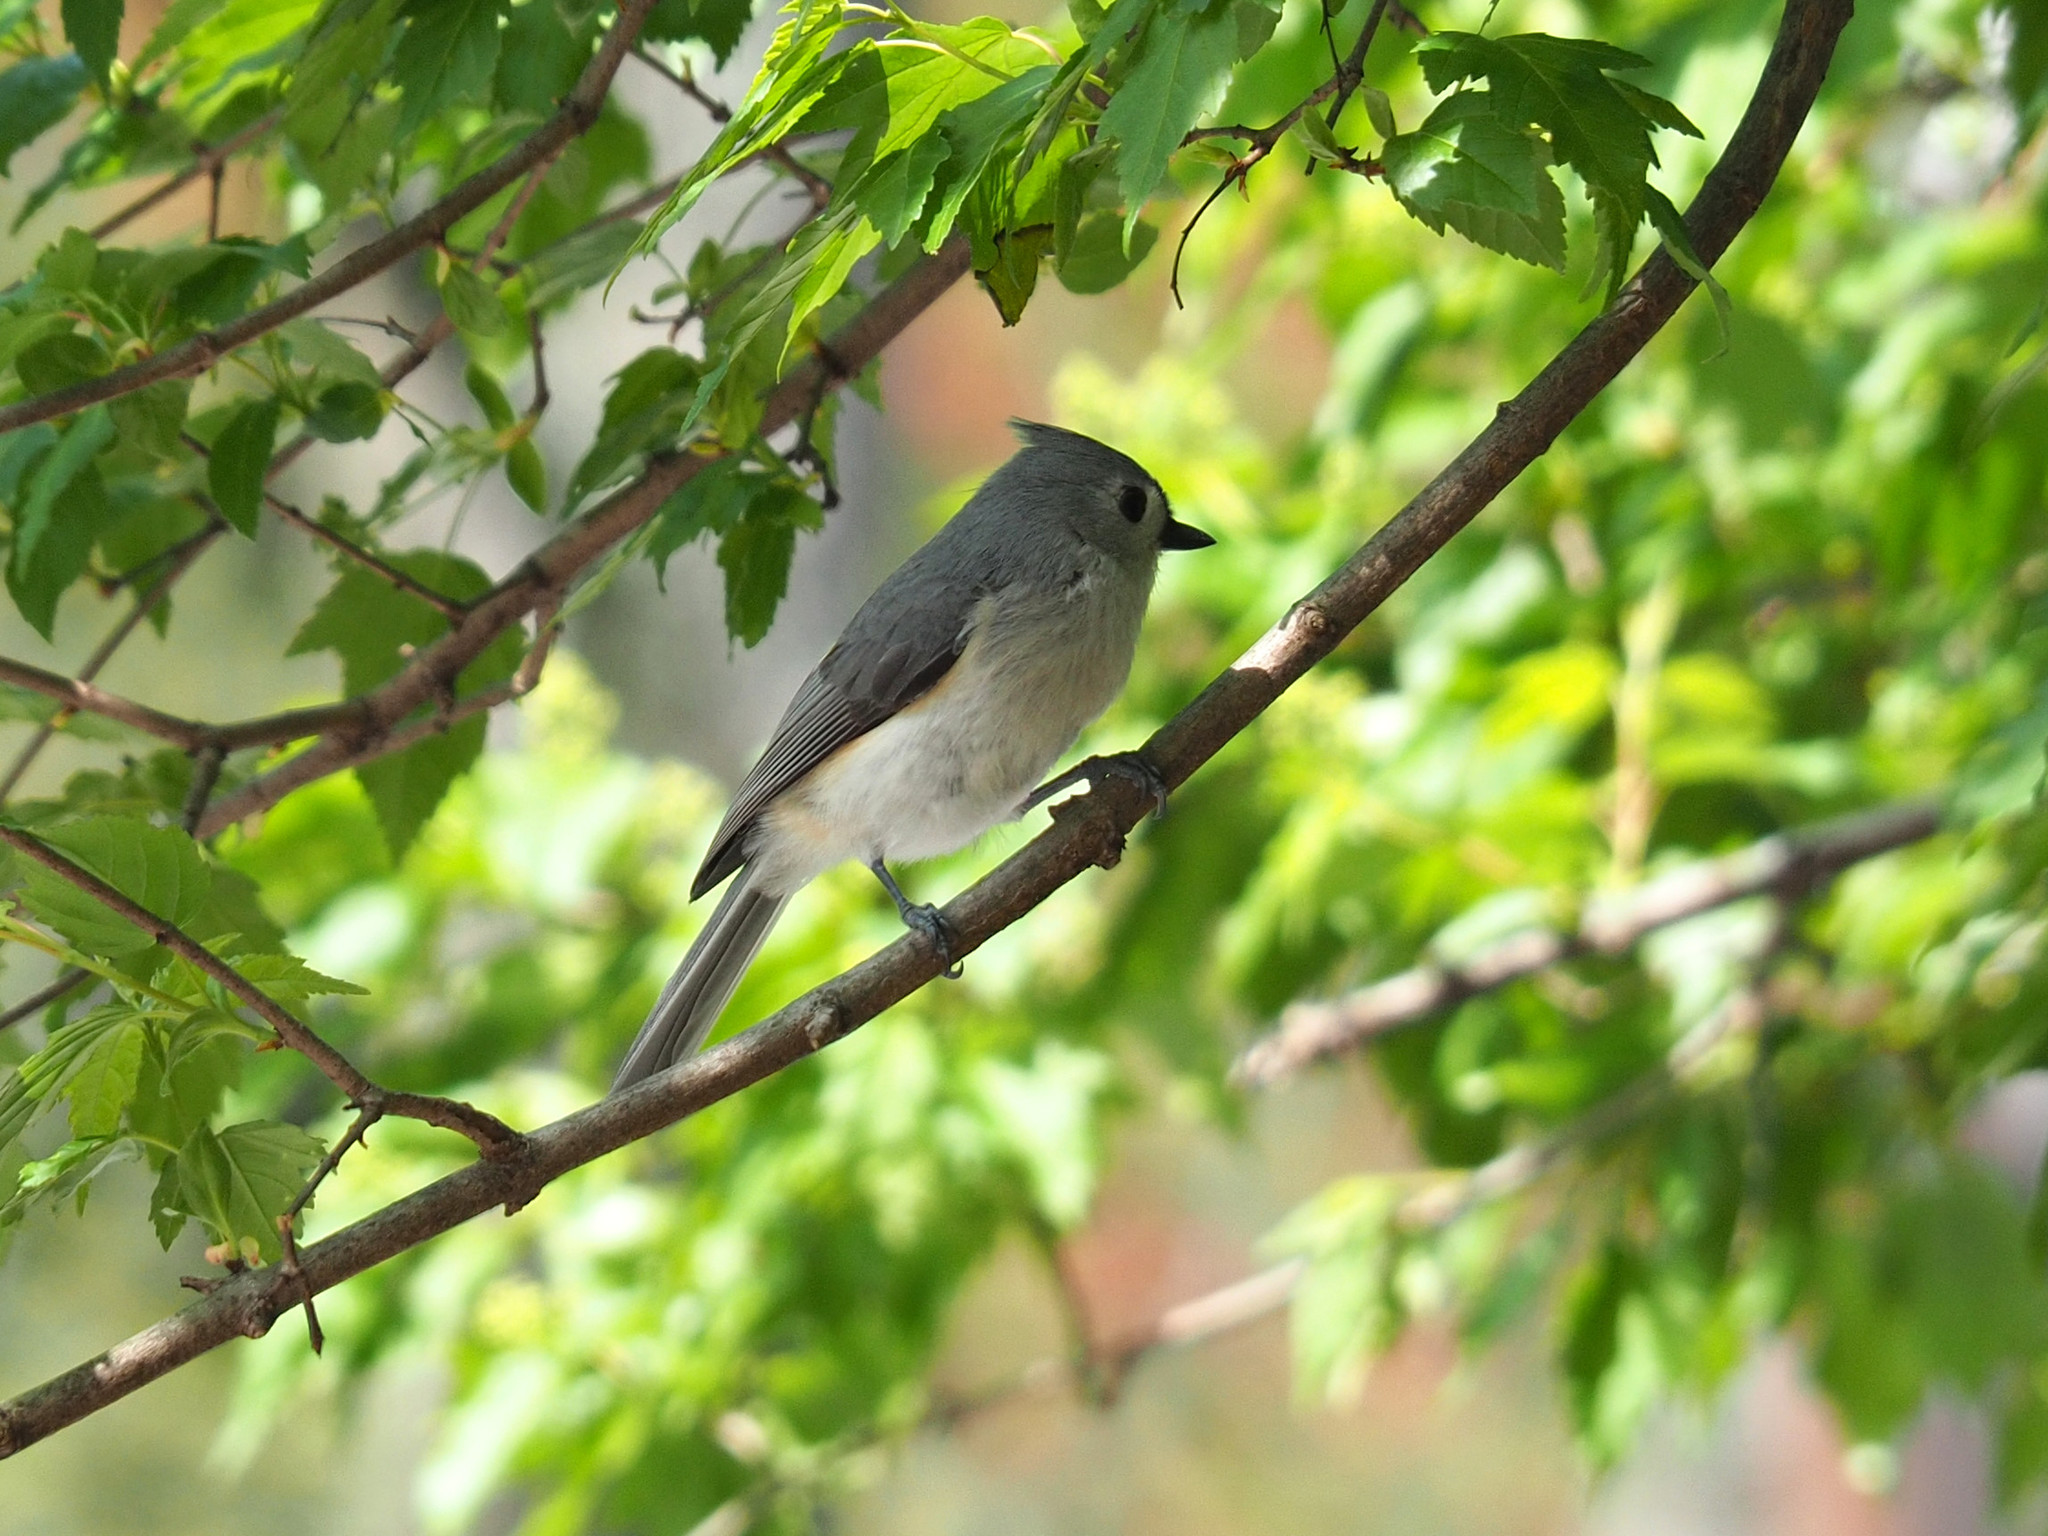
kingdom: Animalia
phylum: Chordata
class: Aves
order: Passeriformes
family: Paridae
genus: Baeolophus
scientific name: Baeolophus bicolor
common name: Tufted titmouse
